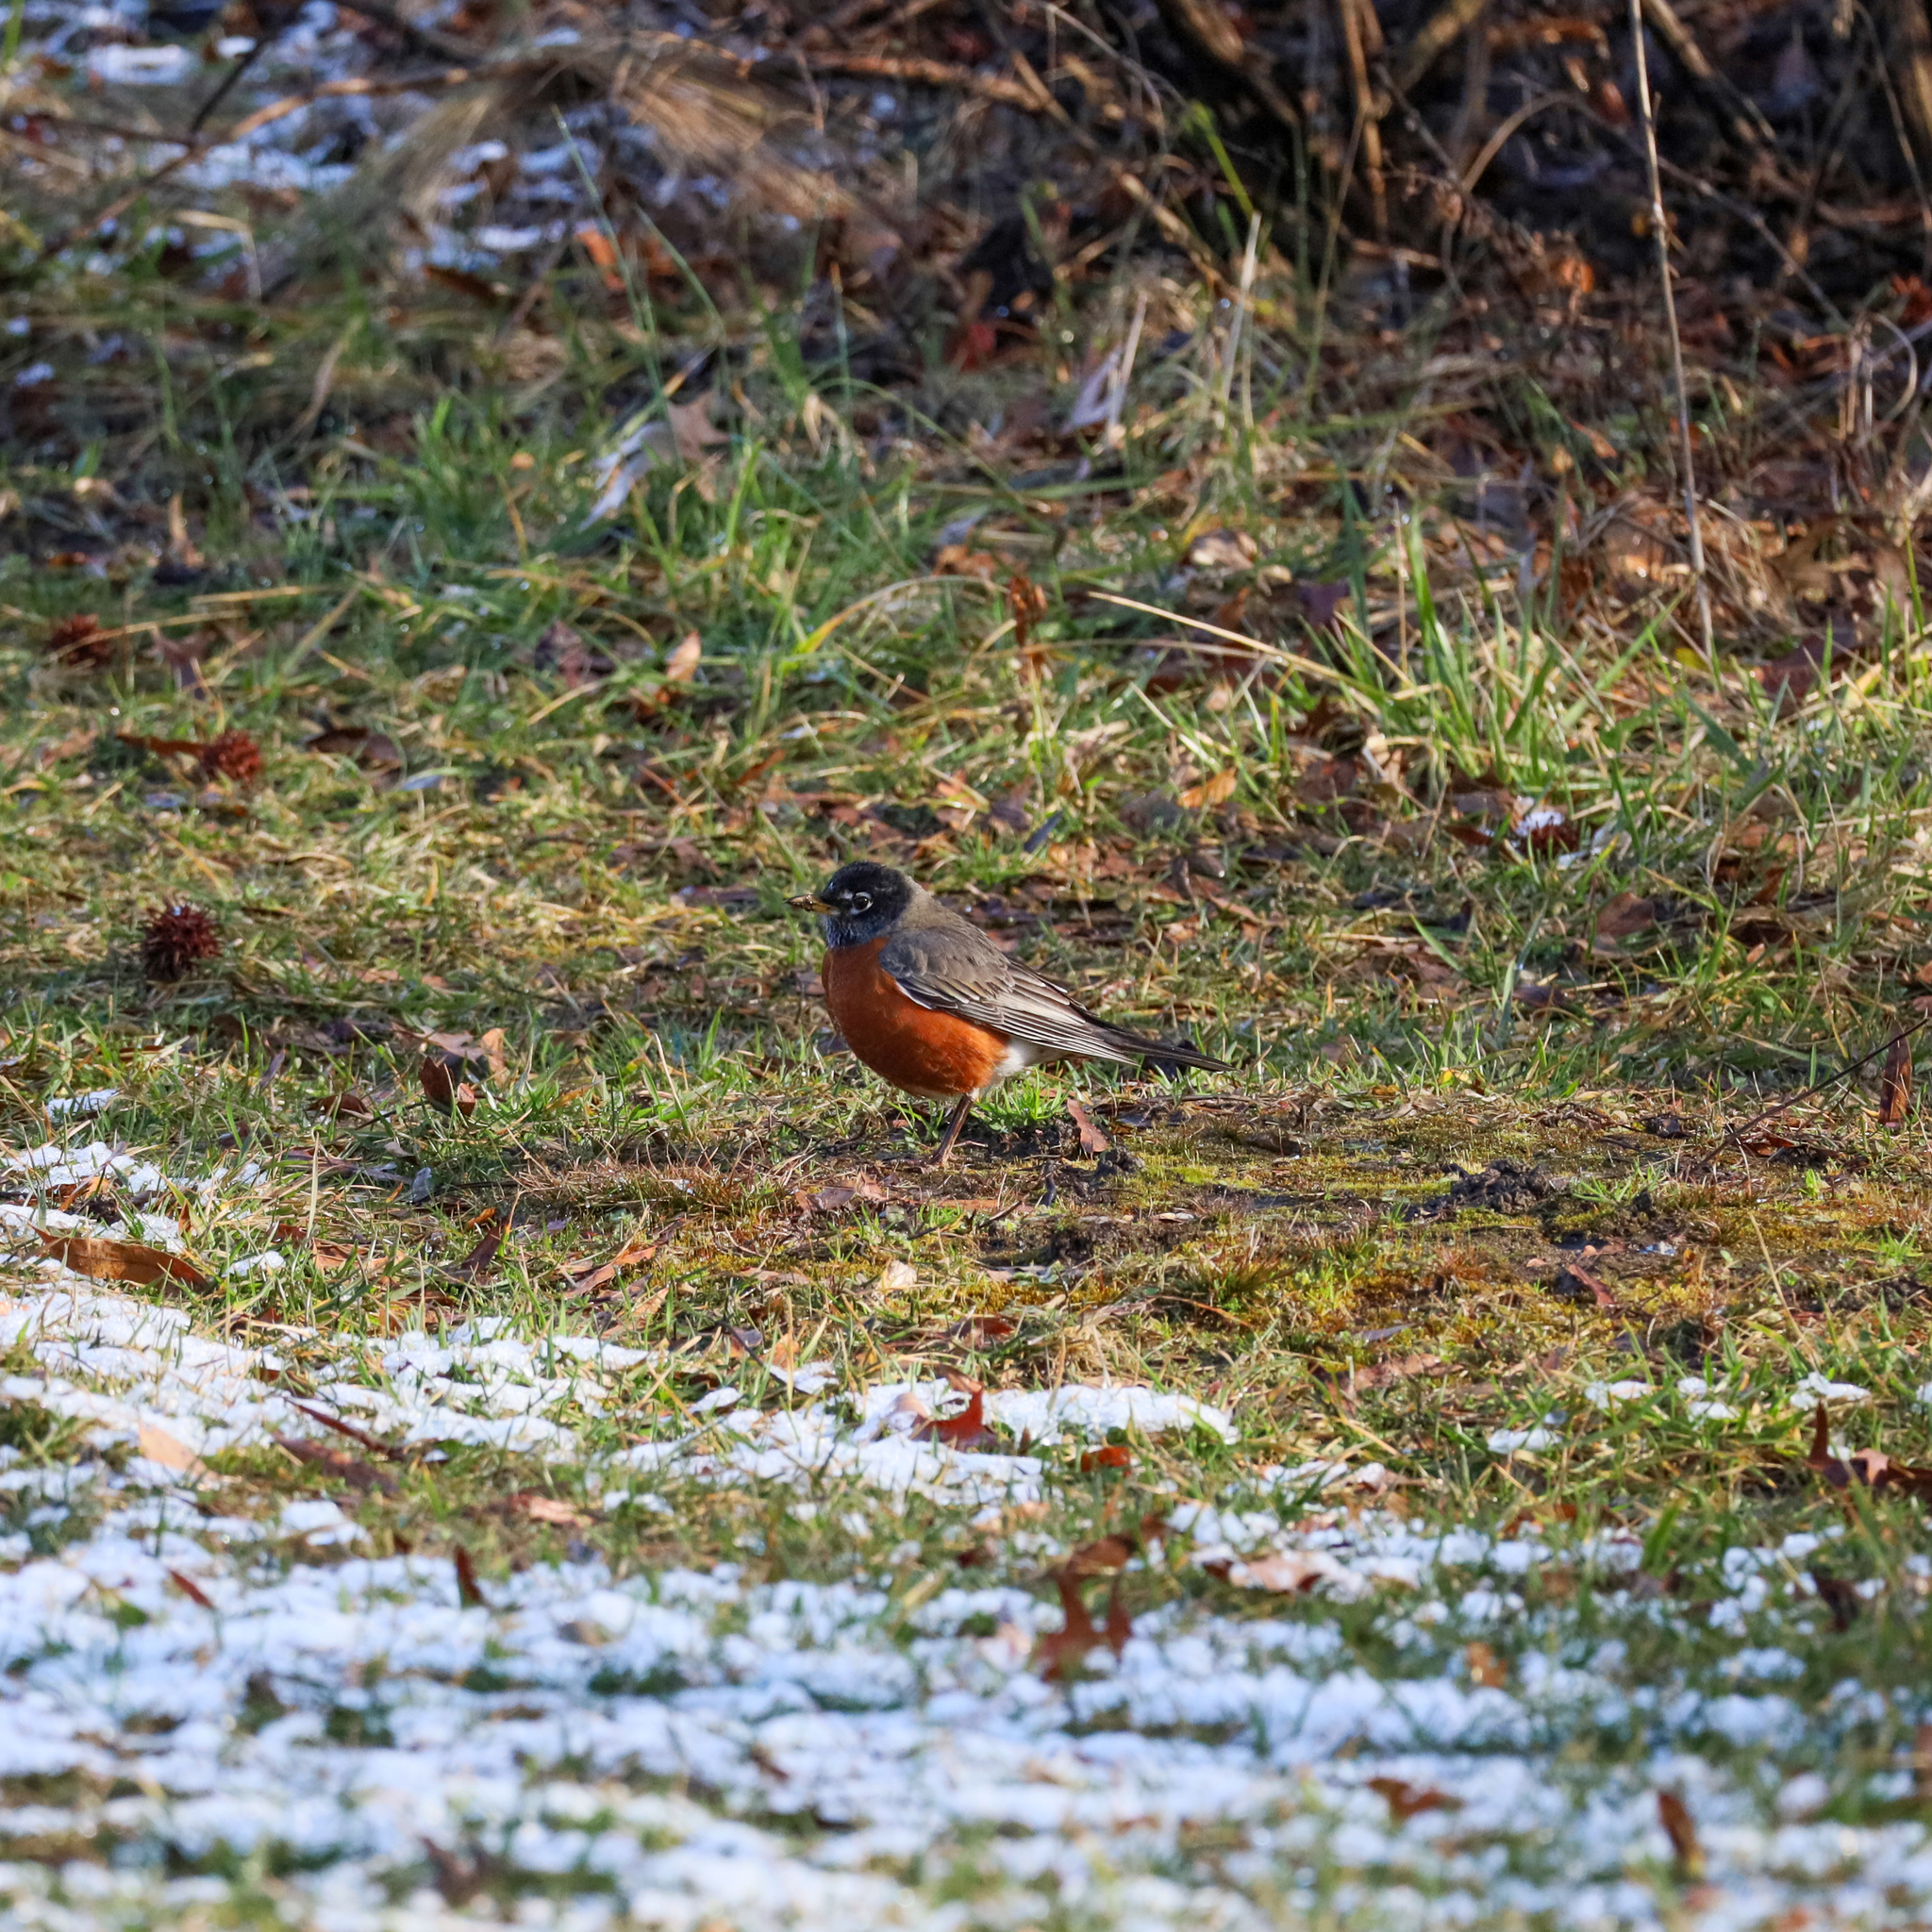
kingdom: Animalia
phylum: Chordata
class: Aves
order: Passeriformes
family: Turdidae
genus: Turdus
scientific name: Turdus migratorius
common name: American robin
